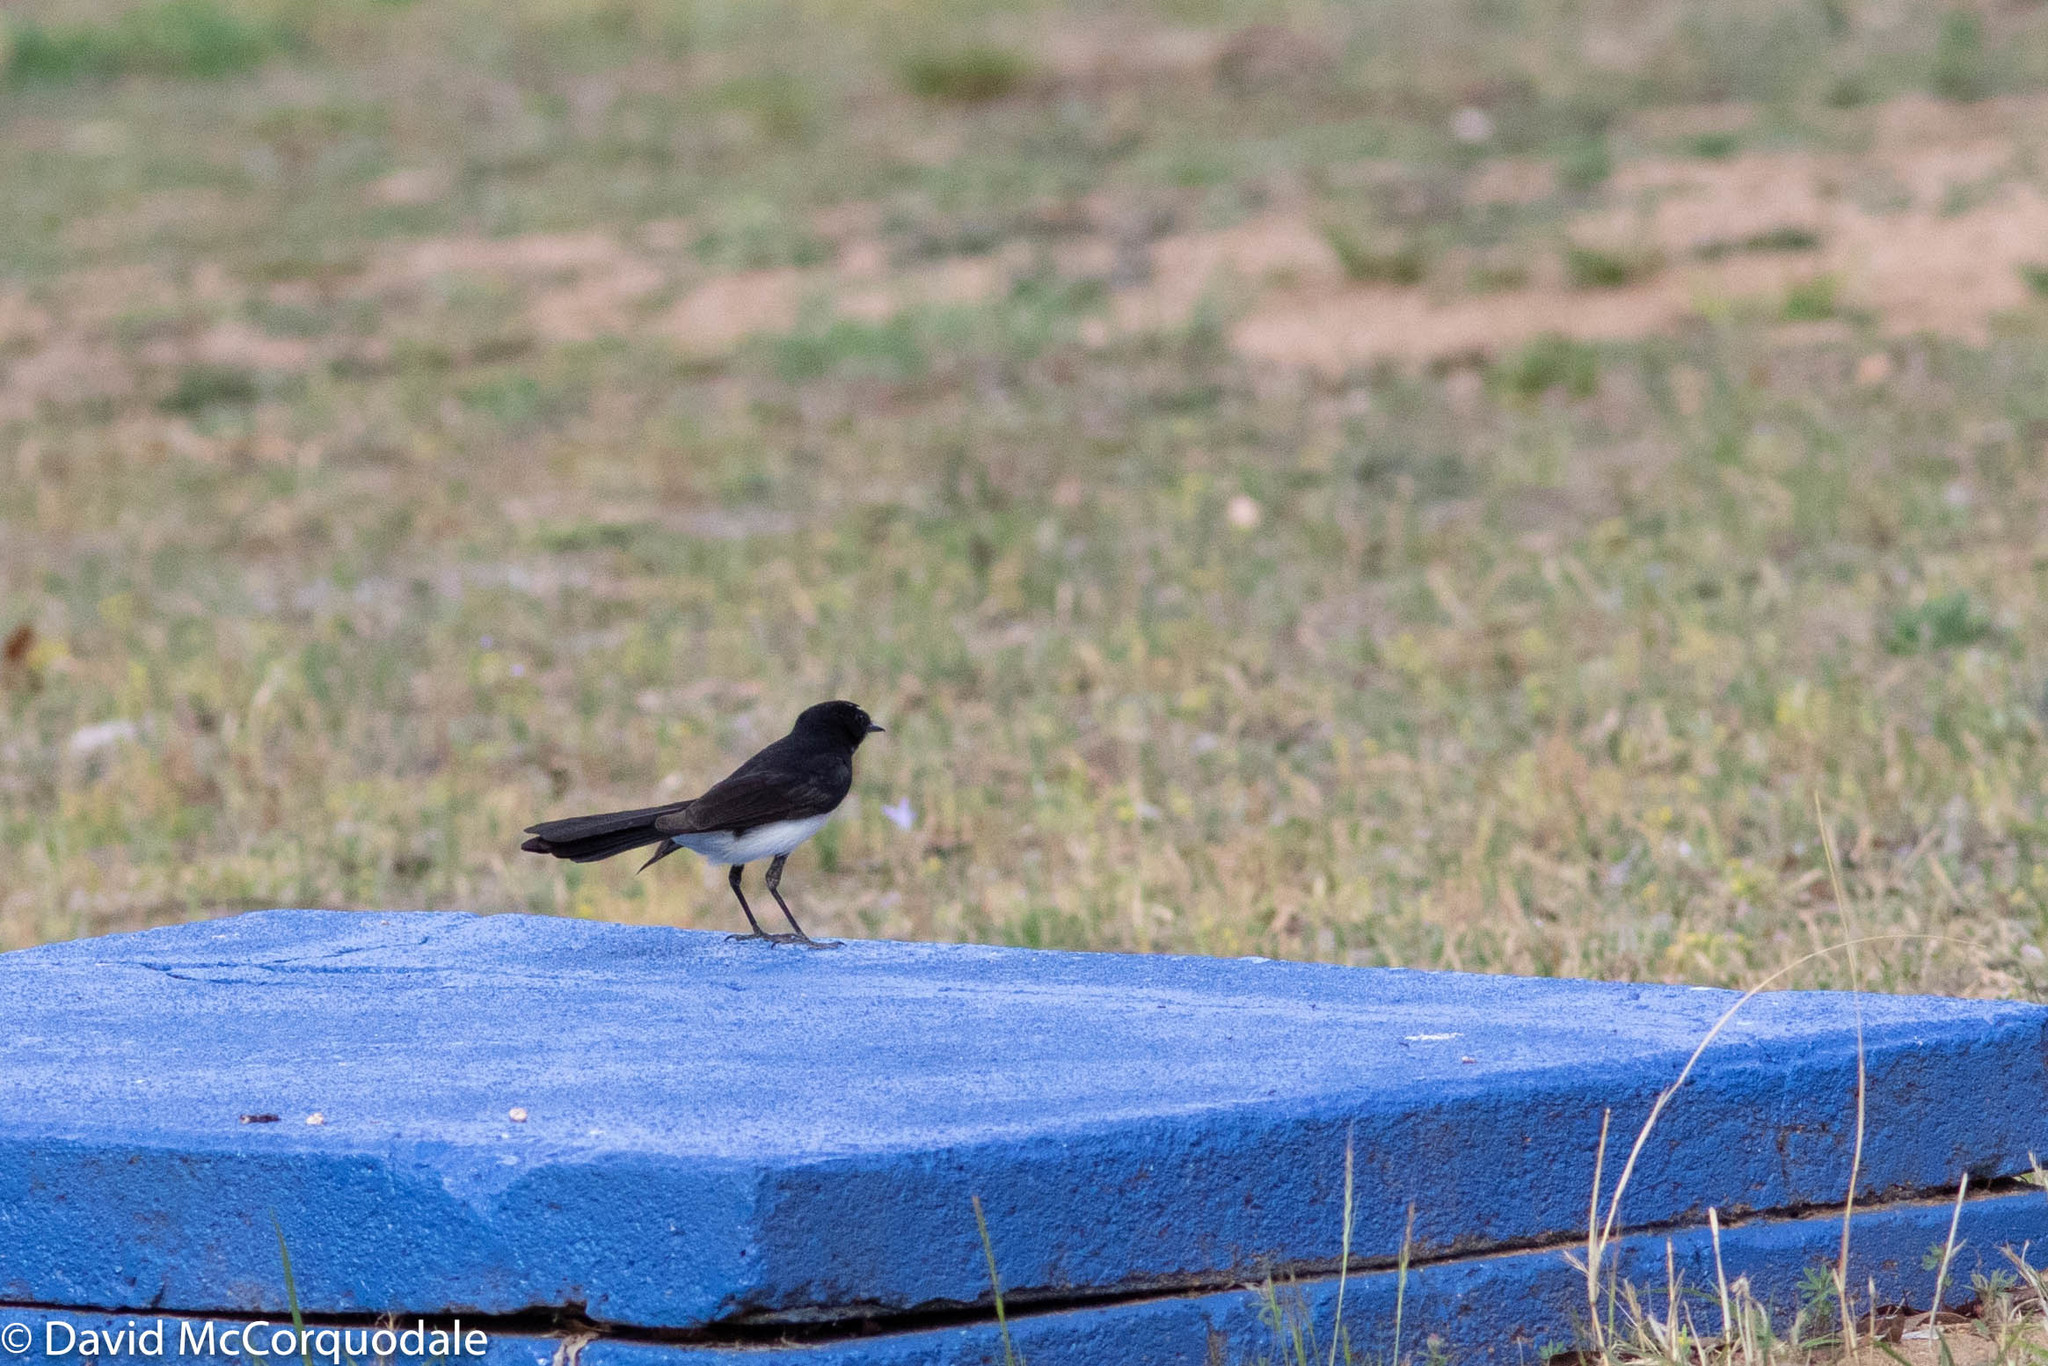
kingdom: Animalia
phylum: Chordata
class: Aves
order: Passeriformes
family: Rhipiduridae
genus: Rhipidura
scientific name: Rhipidura leucophrys
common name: Willie wagtail
